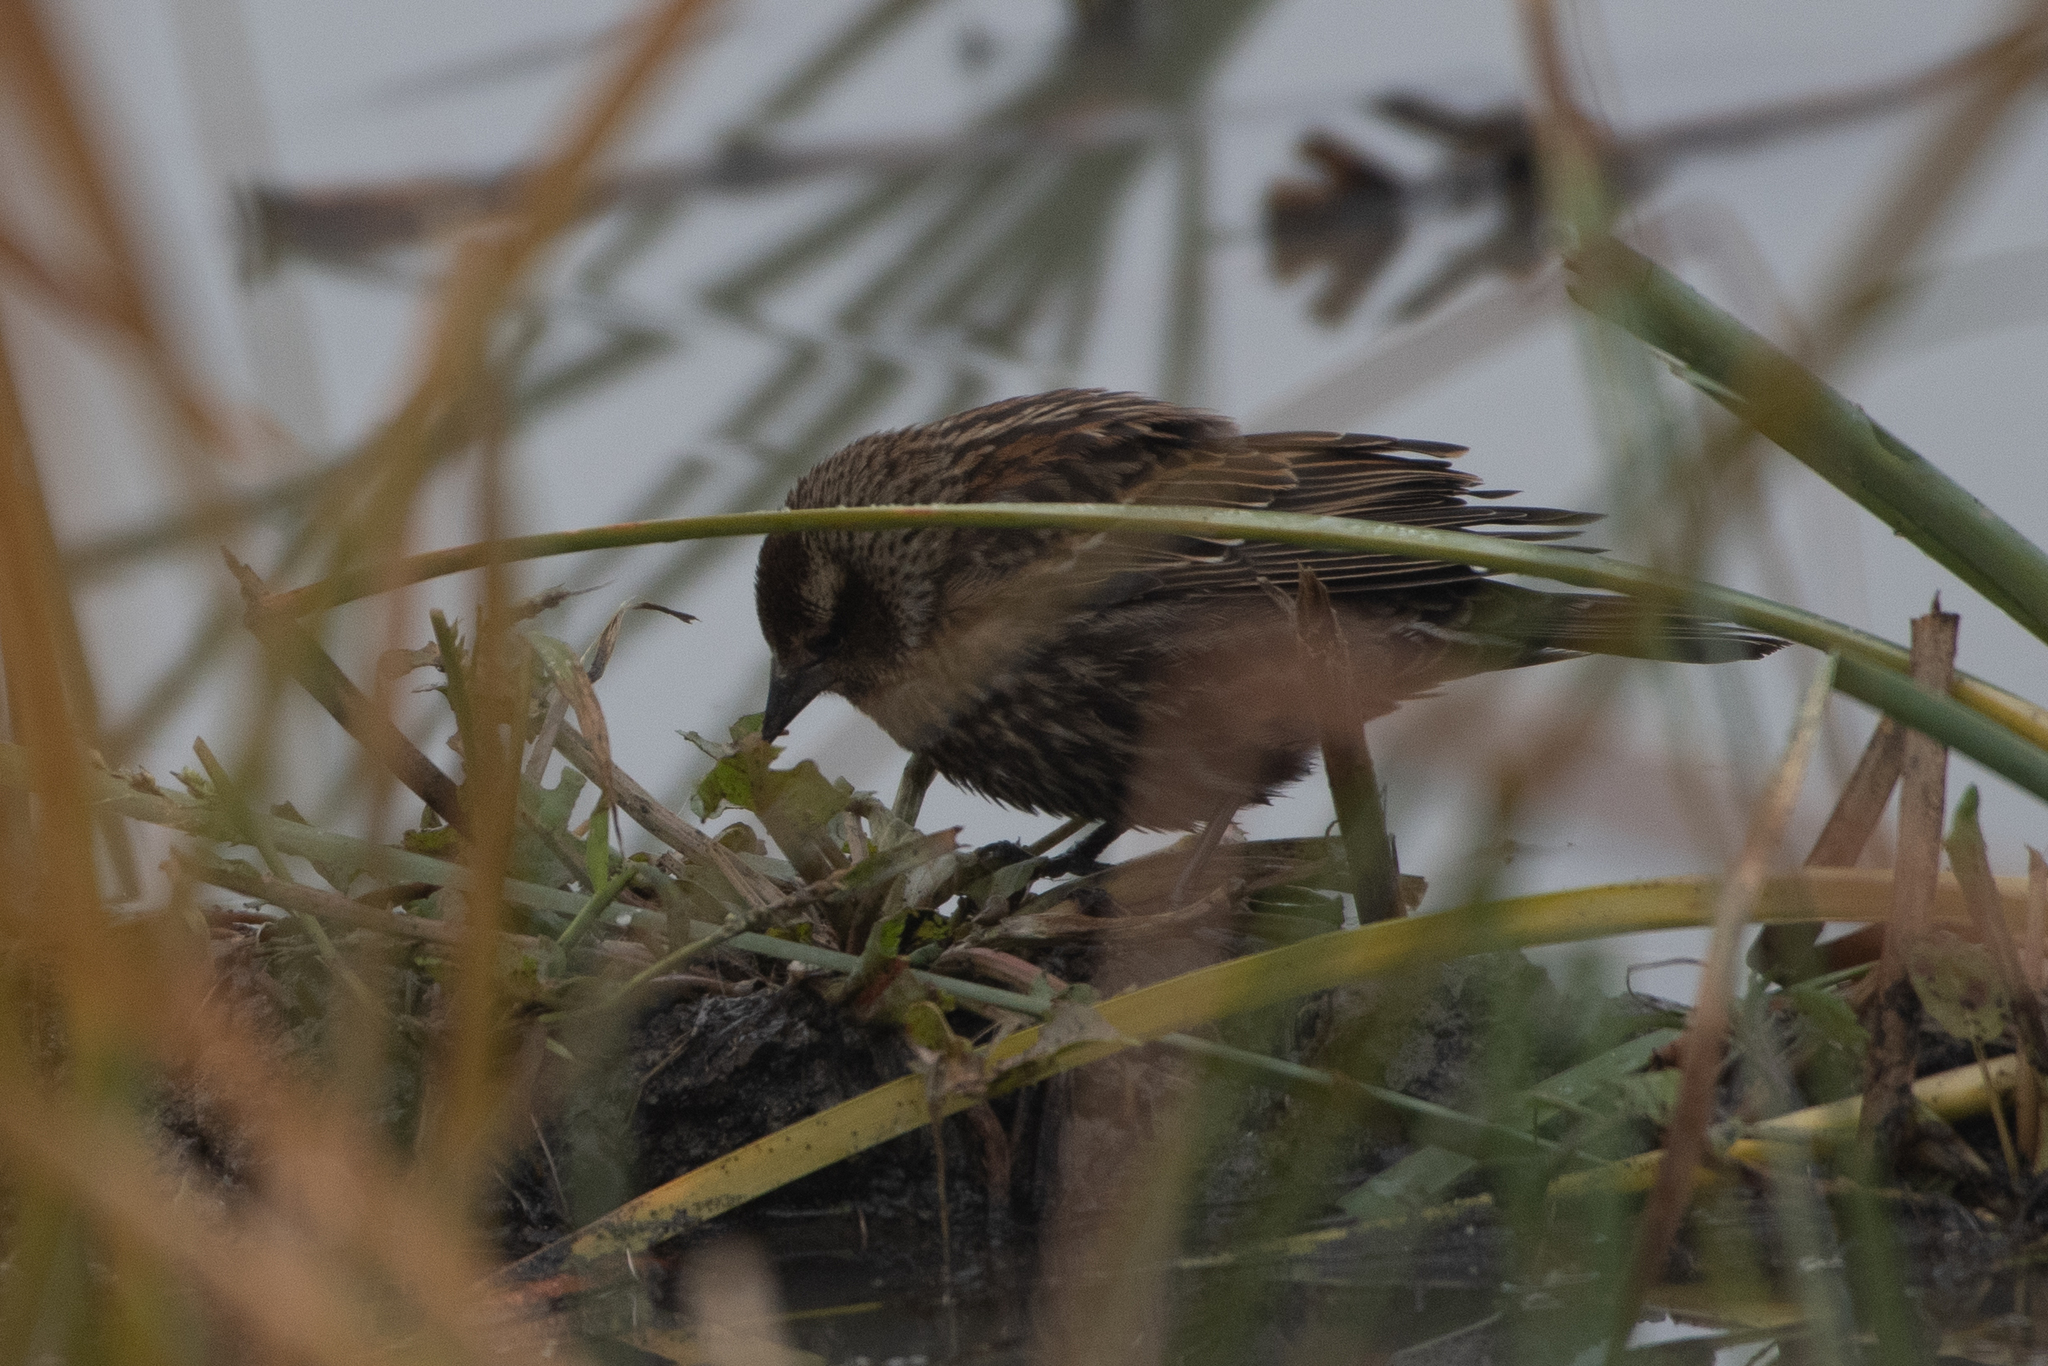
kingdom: Animalia
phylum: Chordata
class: Aves
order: Passeriformes
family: Icteridae
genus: Agelaius
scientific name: Agelaius phoeniceus
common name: Red-winged blackbird
